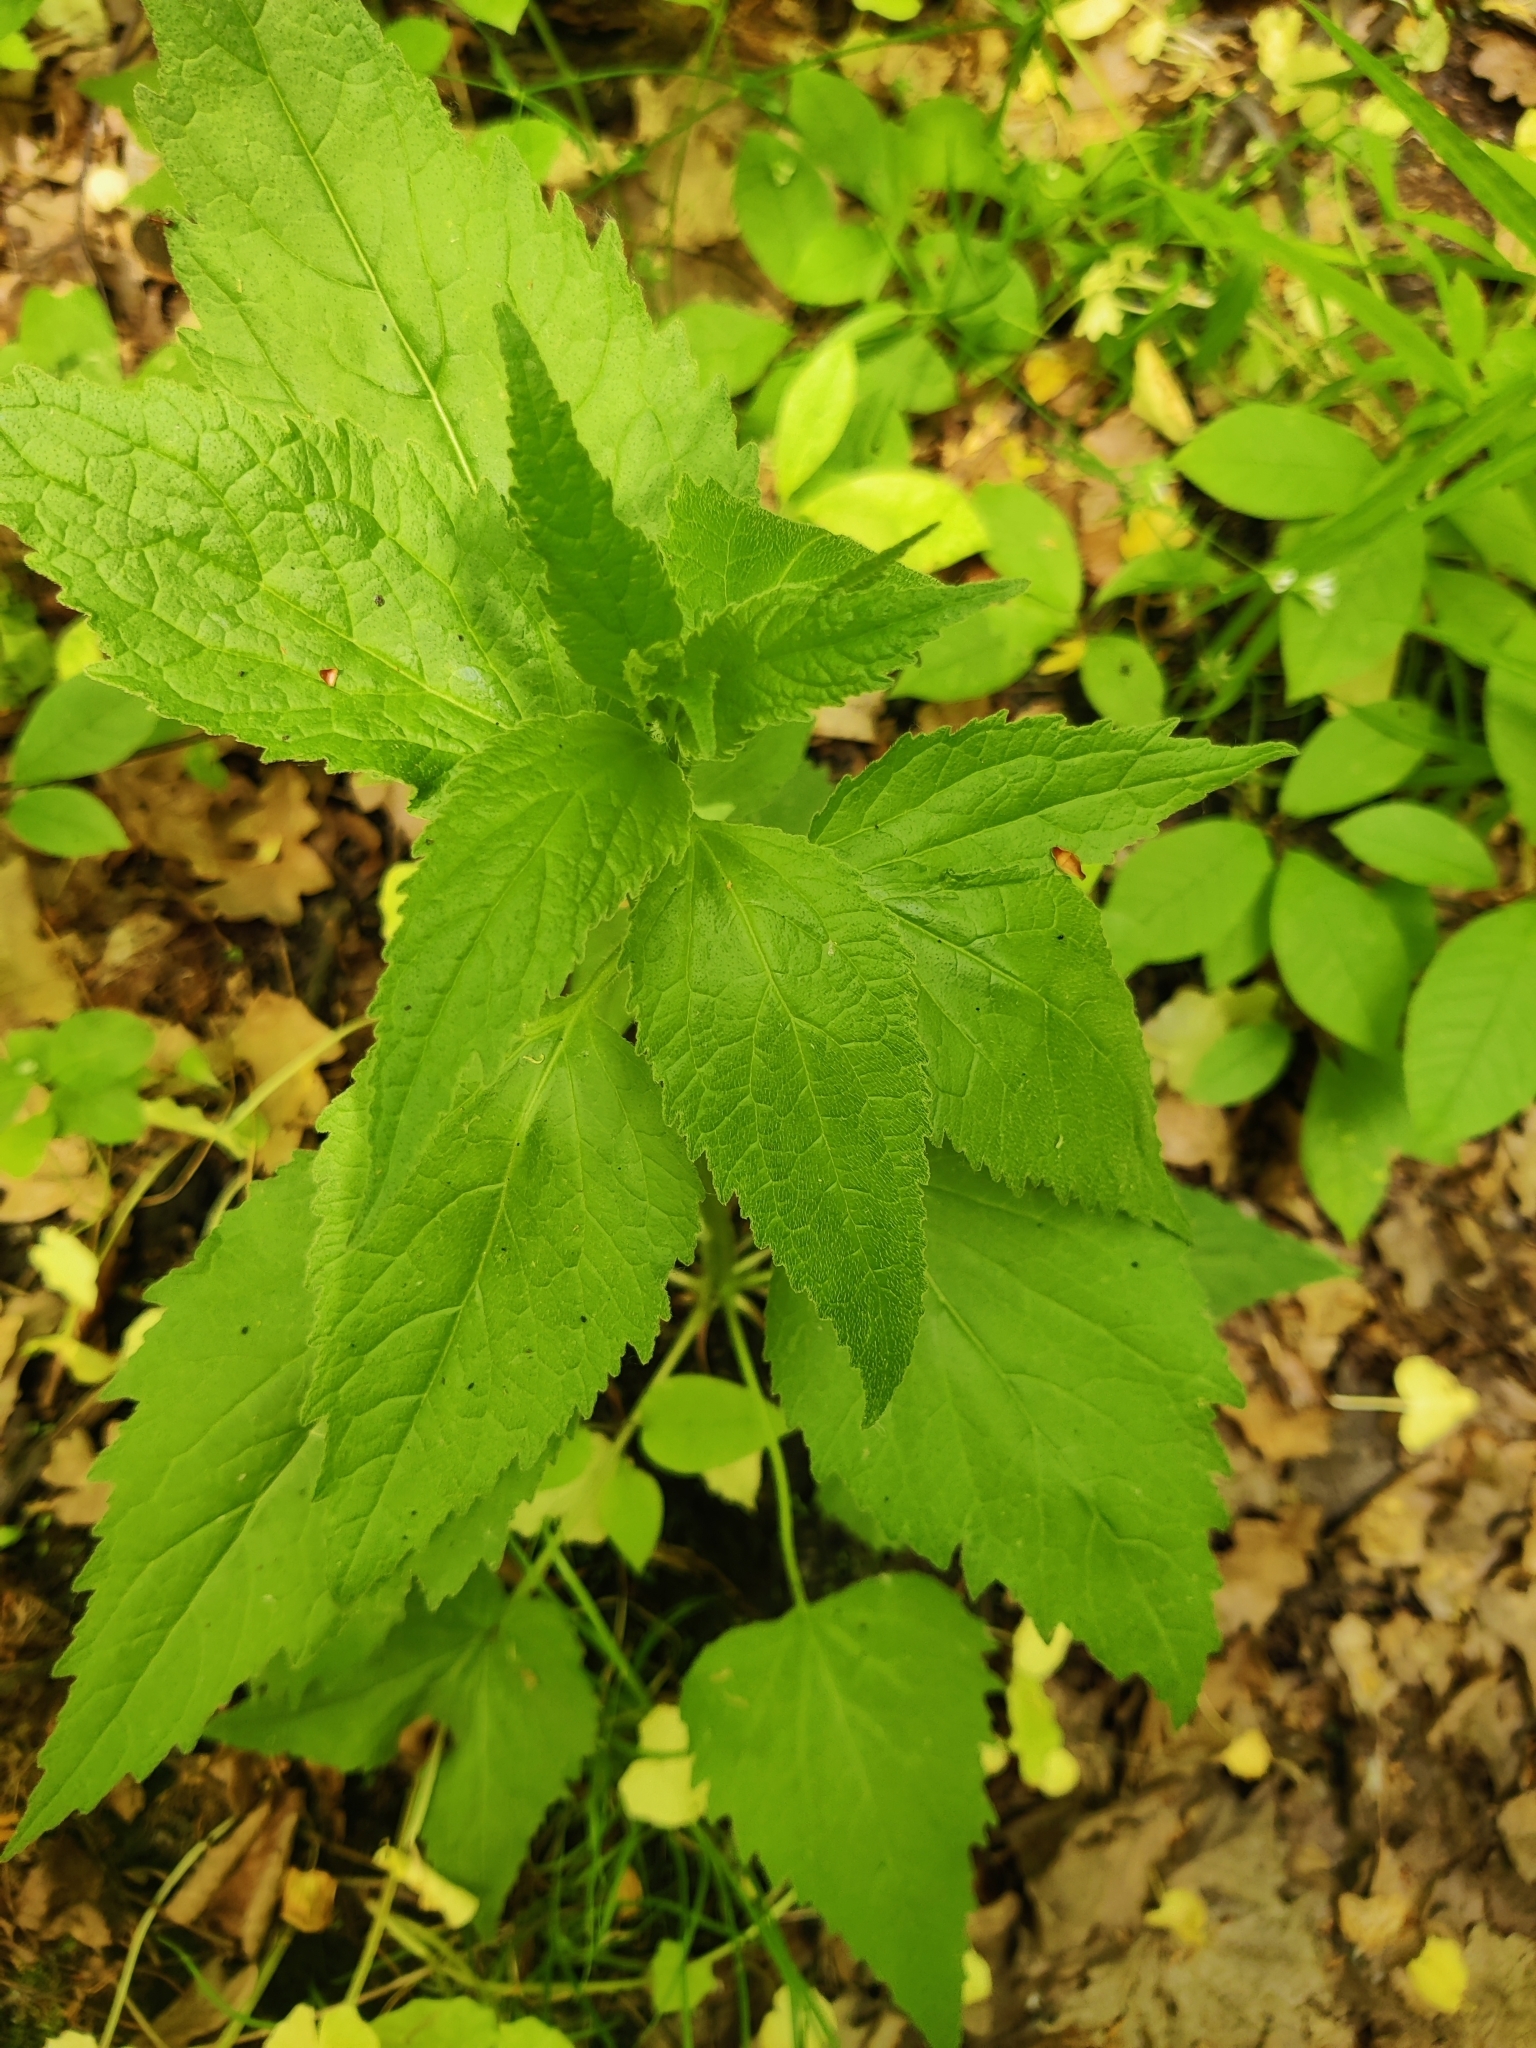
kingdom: Plantae
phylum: Tracheophyta
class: Magnoliopsida
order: Asterales
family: Campanulaceae
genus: Campanula
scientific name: Campanula latifolia
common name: Giant bellflower
